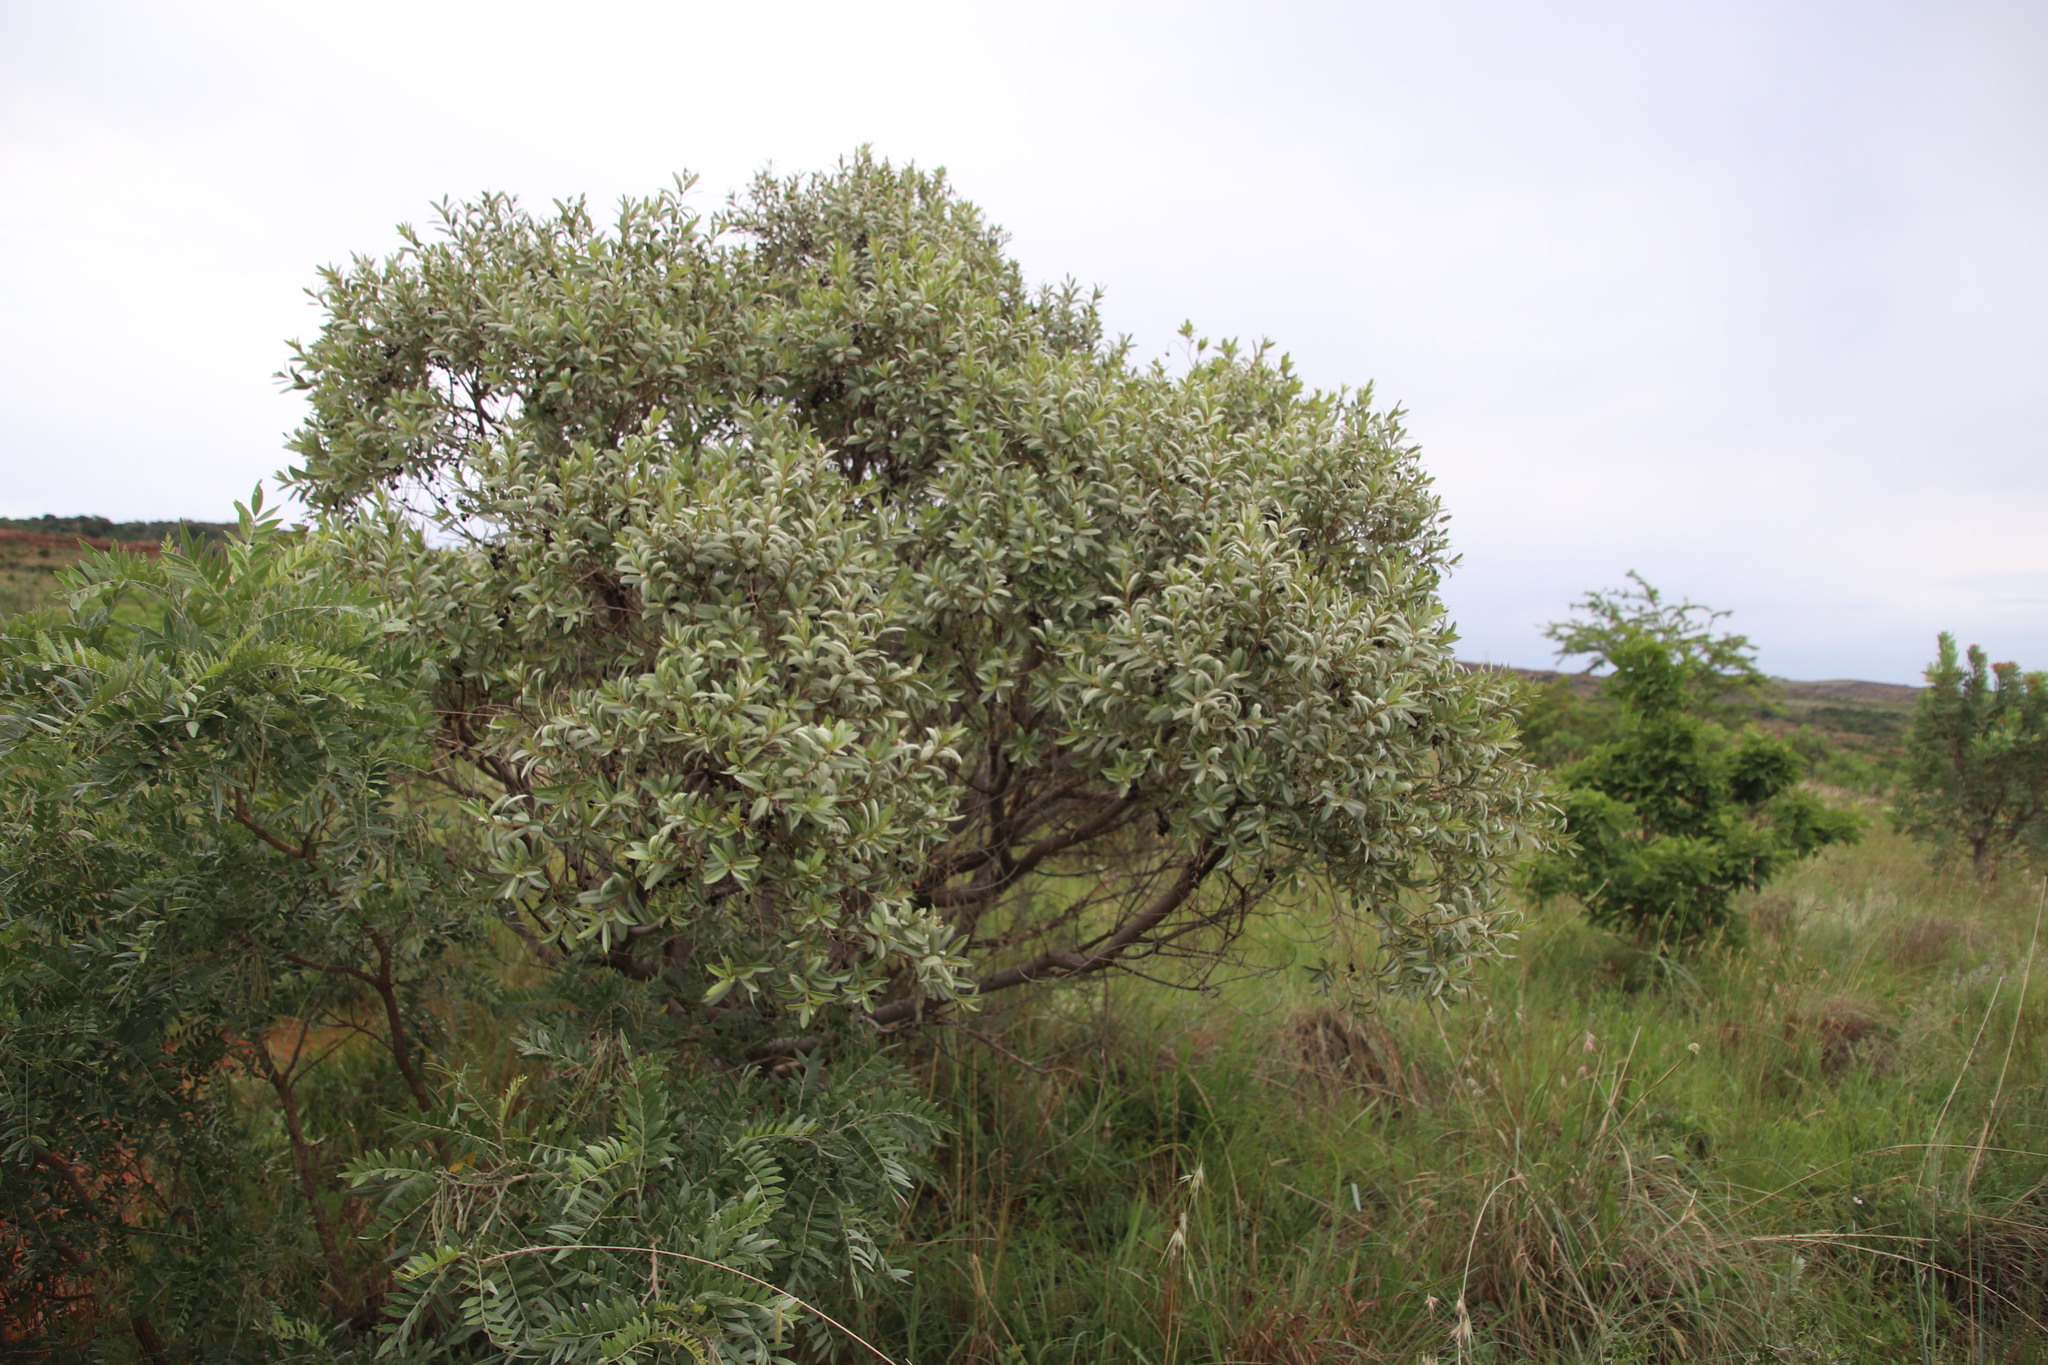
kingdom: Plantae
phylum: Tracheophyta
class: Magnoliopsida
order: Sapindales
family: Anacardiaceae
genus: Ozoroa
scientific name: Ozoroa paniculosa
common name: Bushveld ozoroa
